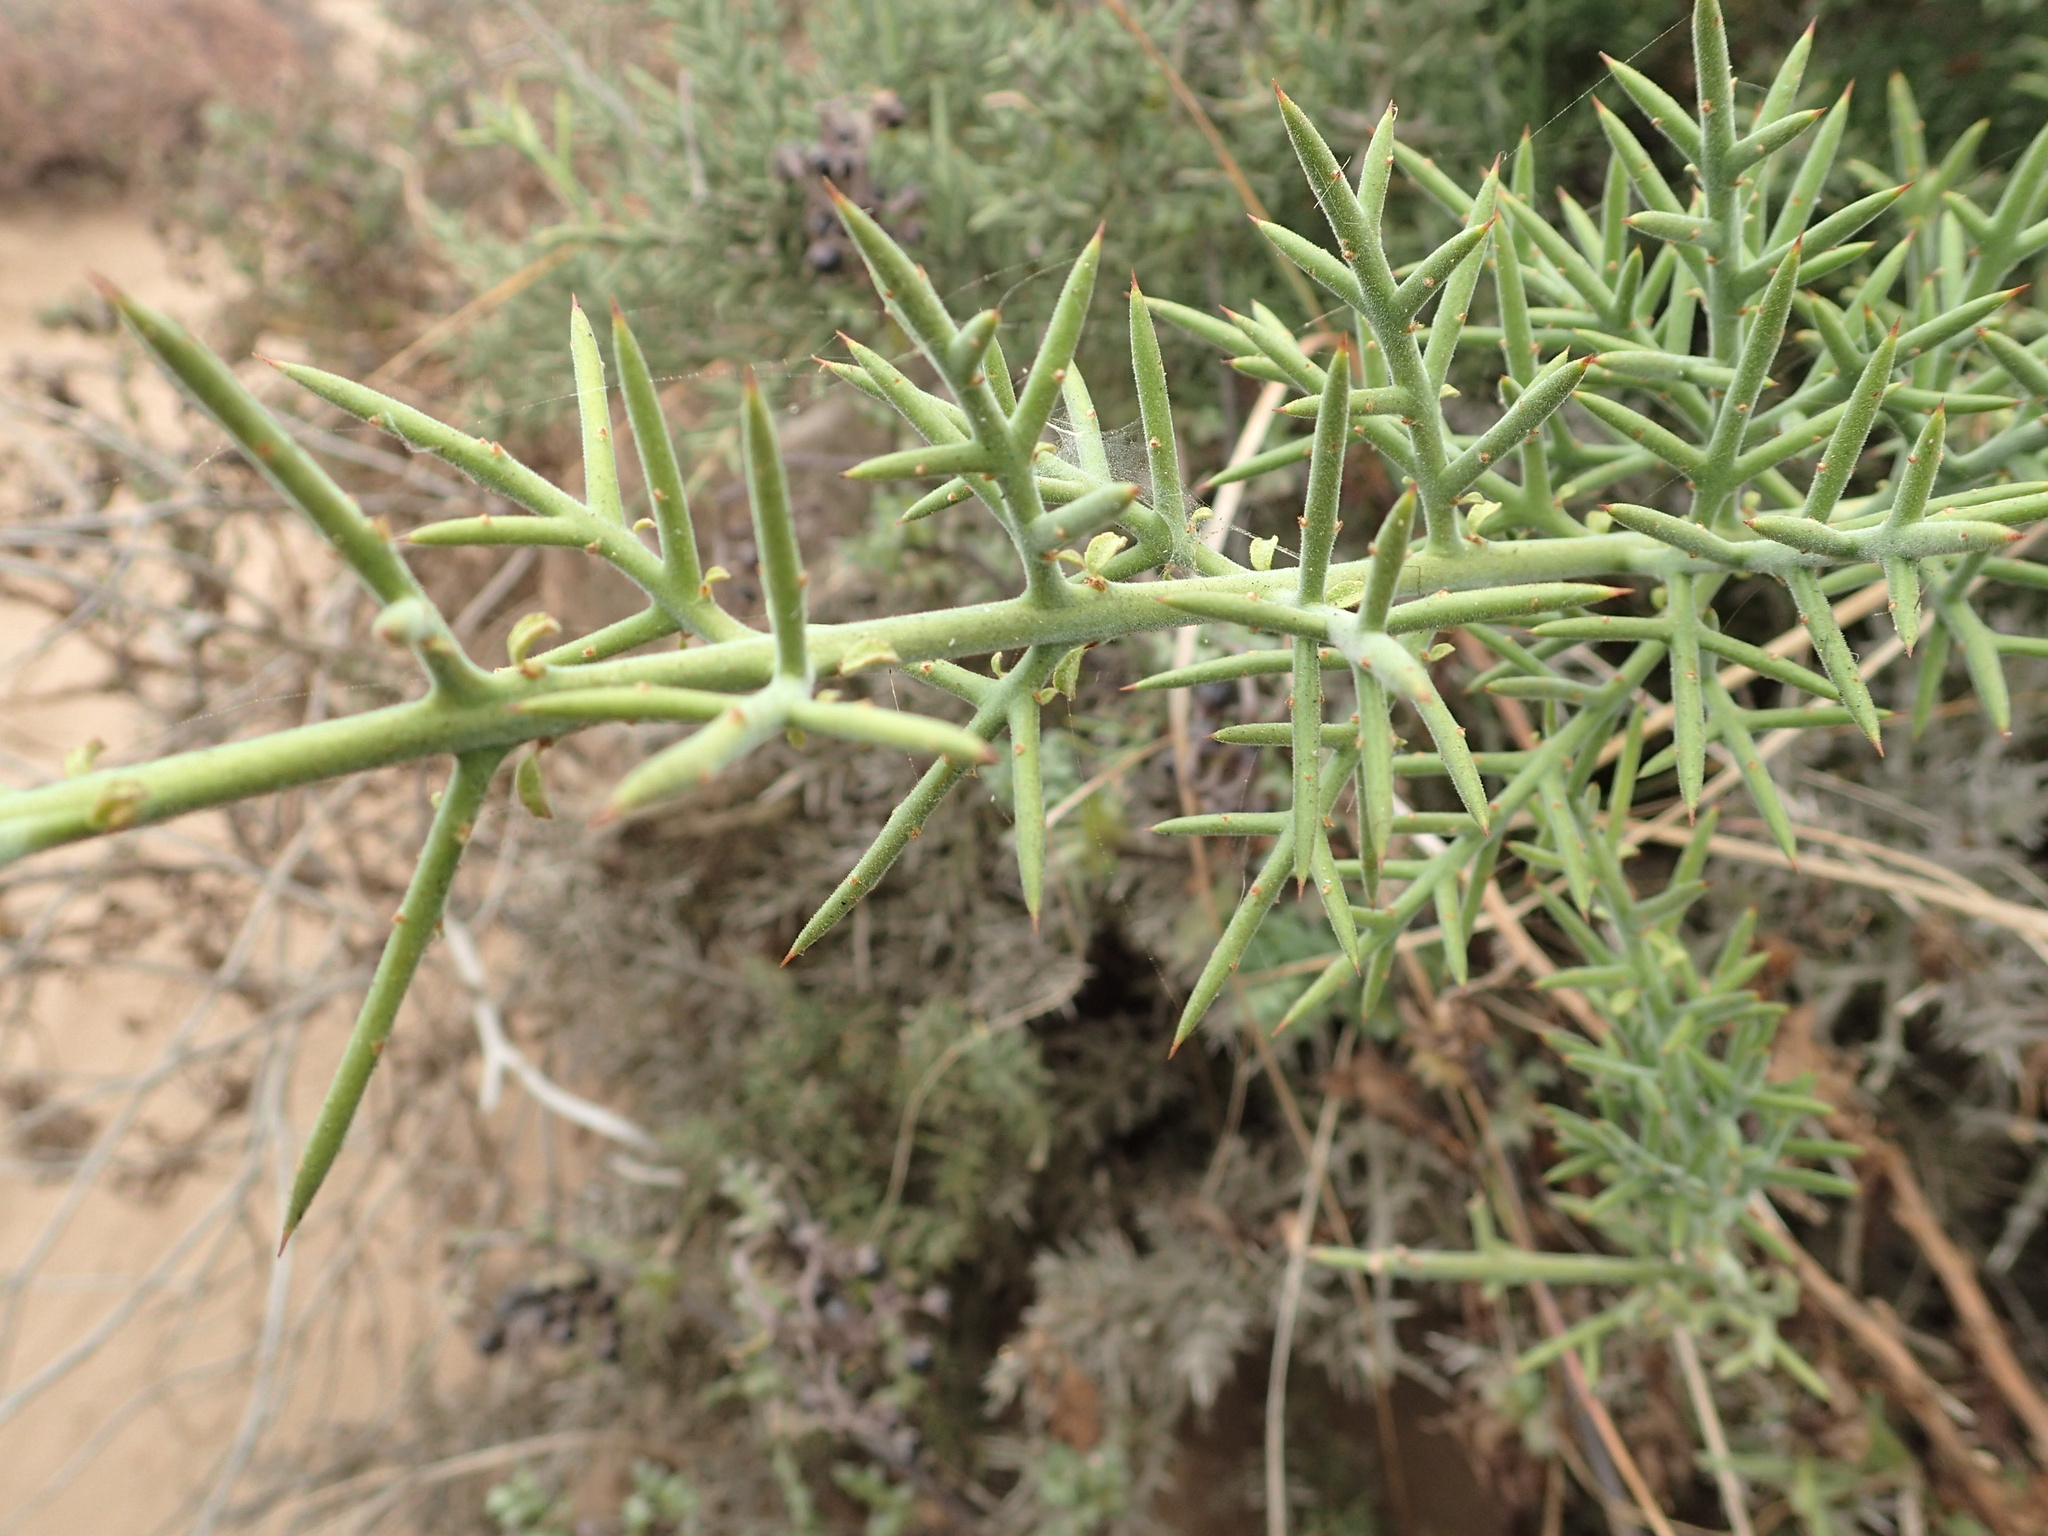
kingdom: Plantae
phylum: Tracheophyta
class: Magnoliopsida
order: Rosales
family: Rhamnaceae
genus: Colletia
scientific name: Colletia hystrix
